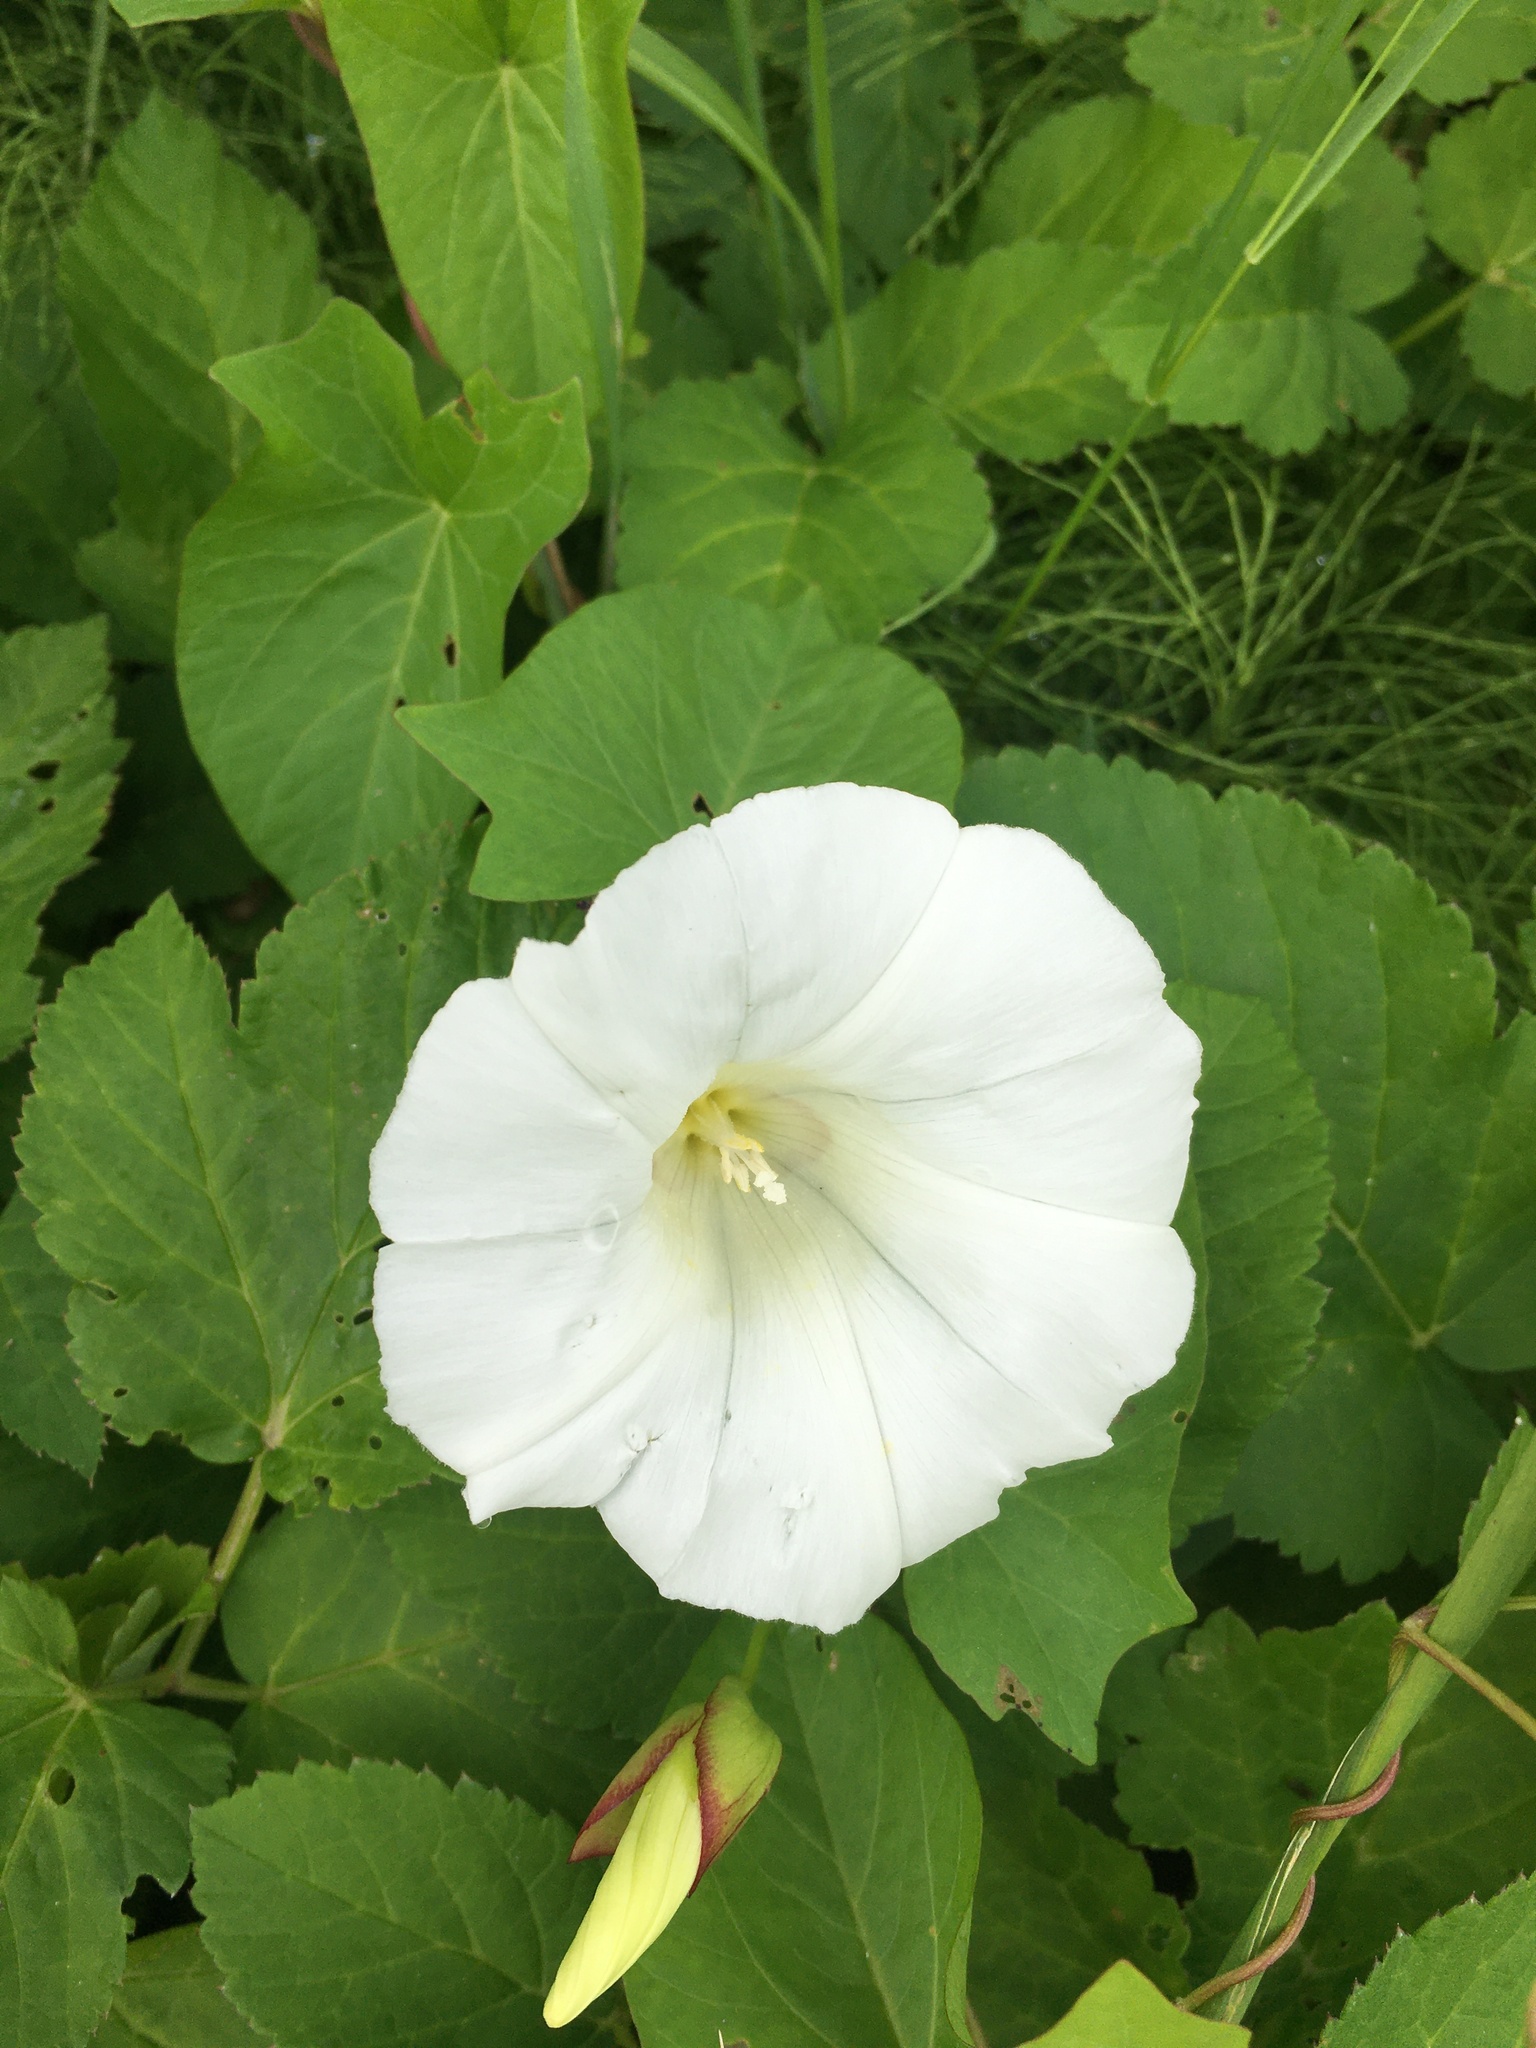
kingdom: Plantae
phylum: Tracheophyta
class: Magnoliopsida
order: Solanales
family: Convolvulaceae
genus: Calystegia
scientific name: Calystegia sepium
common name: Hedge bindweed
